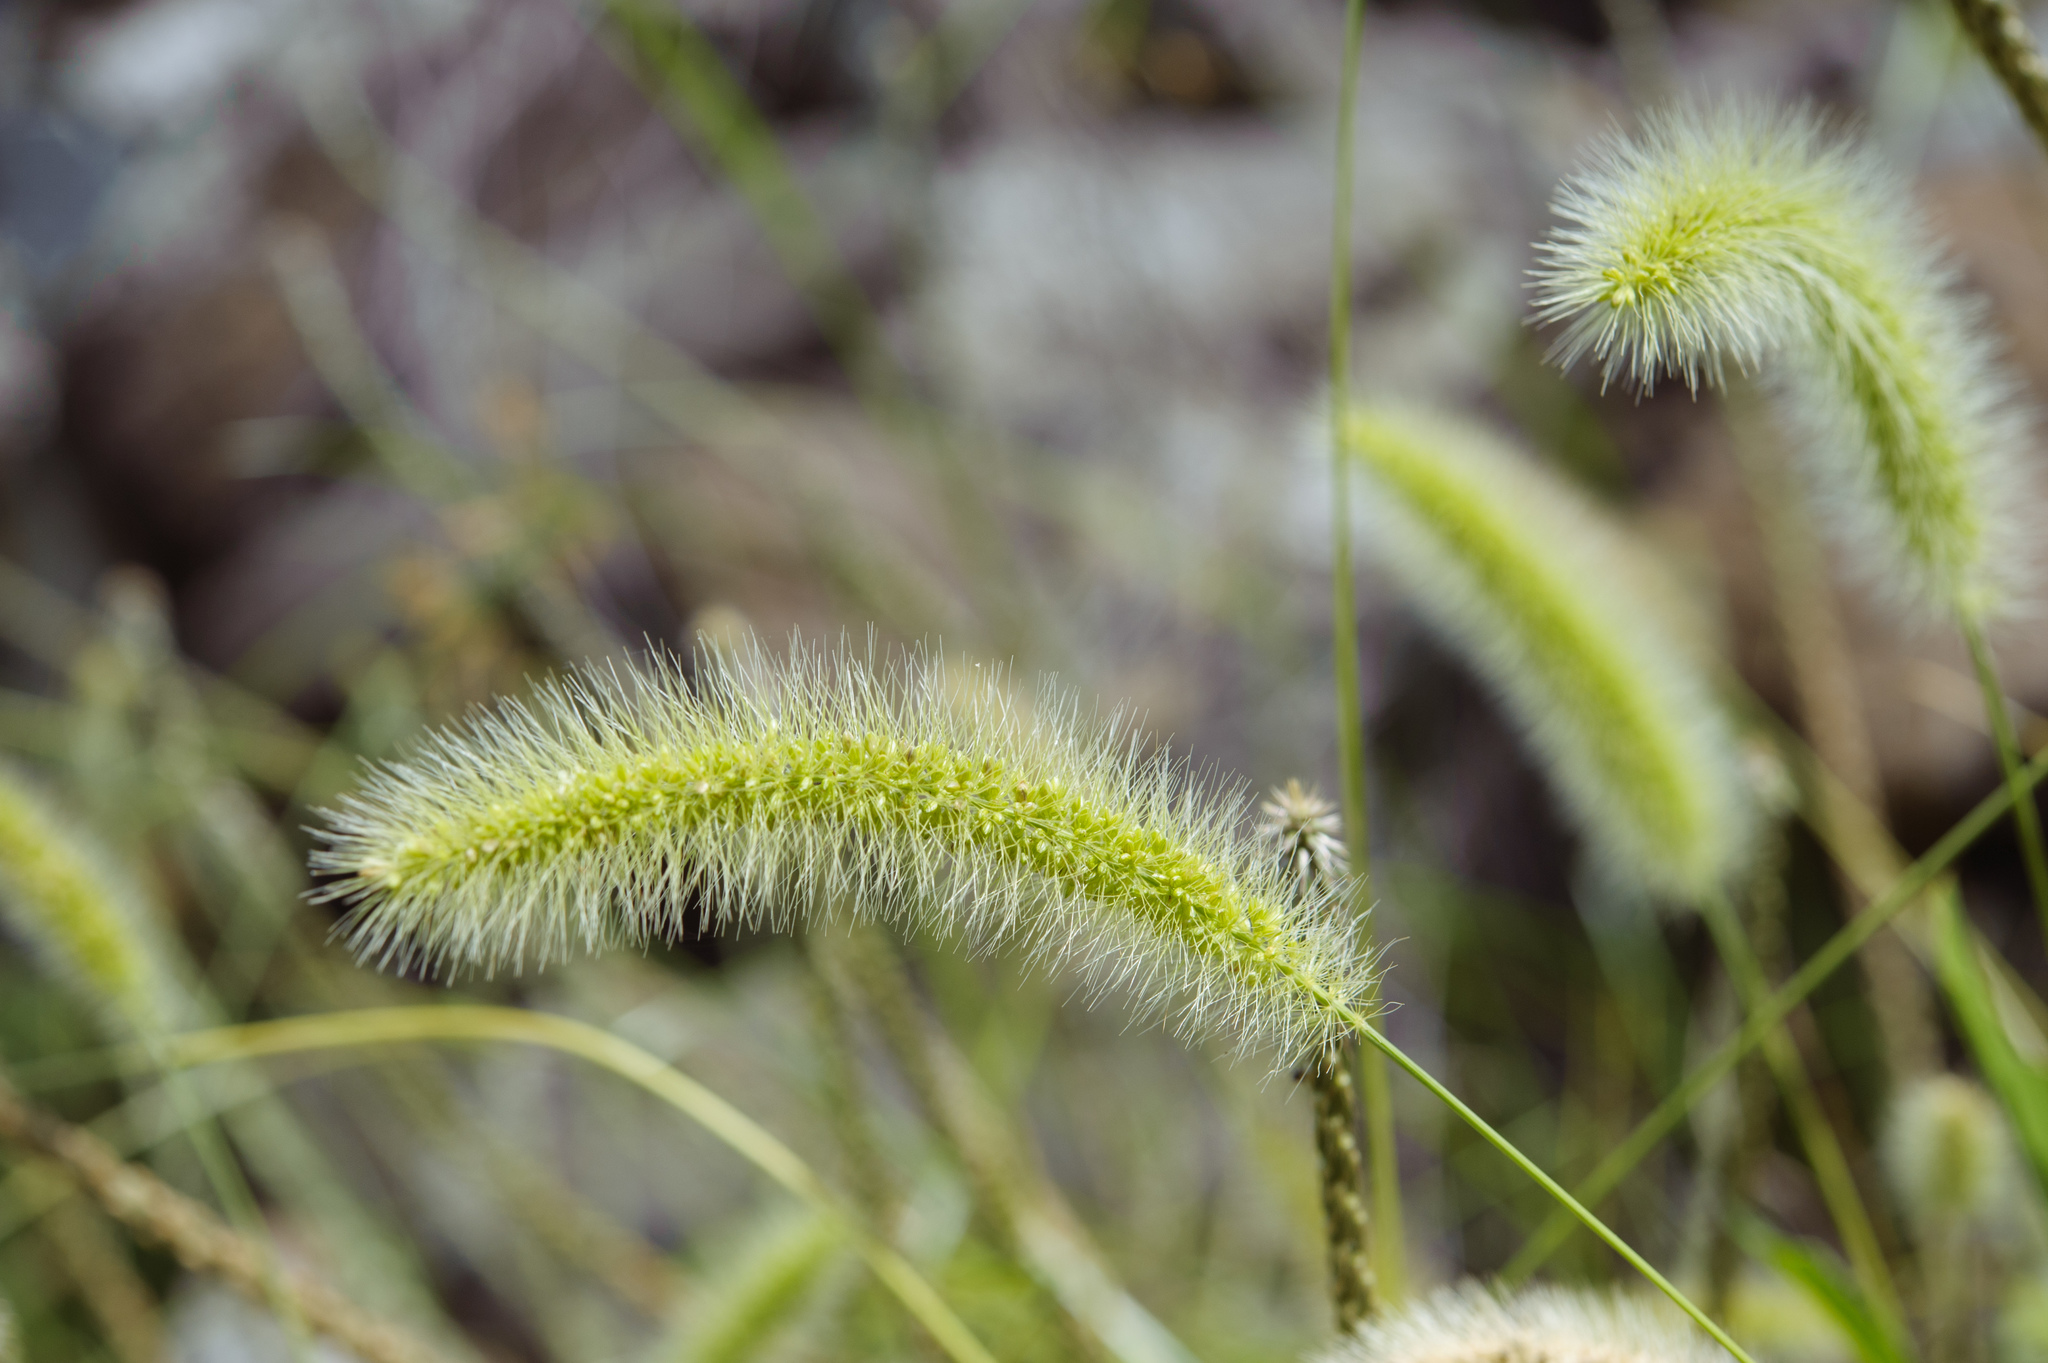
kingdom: Plantae
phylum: Tracheophyta
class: Liliopsida
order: Poales
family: Poaceae
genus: Setaria
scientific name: Setaria viridis
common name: Green bristlegrass
